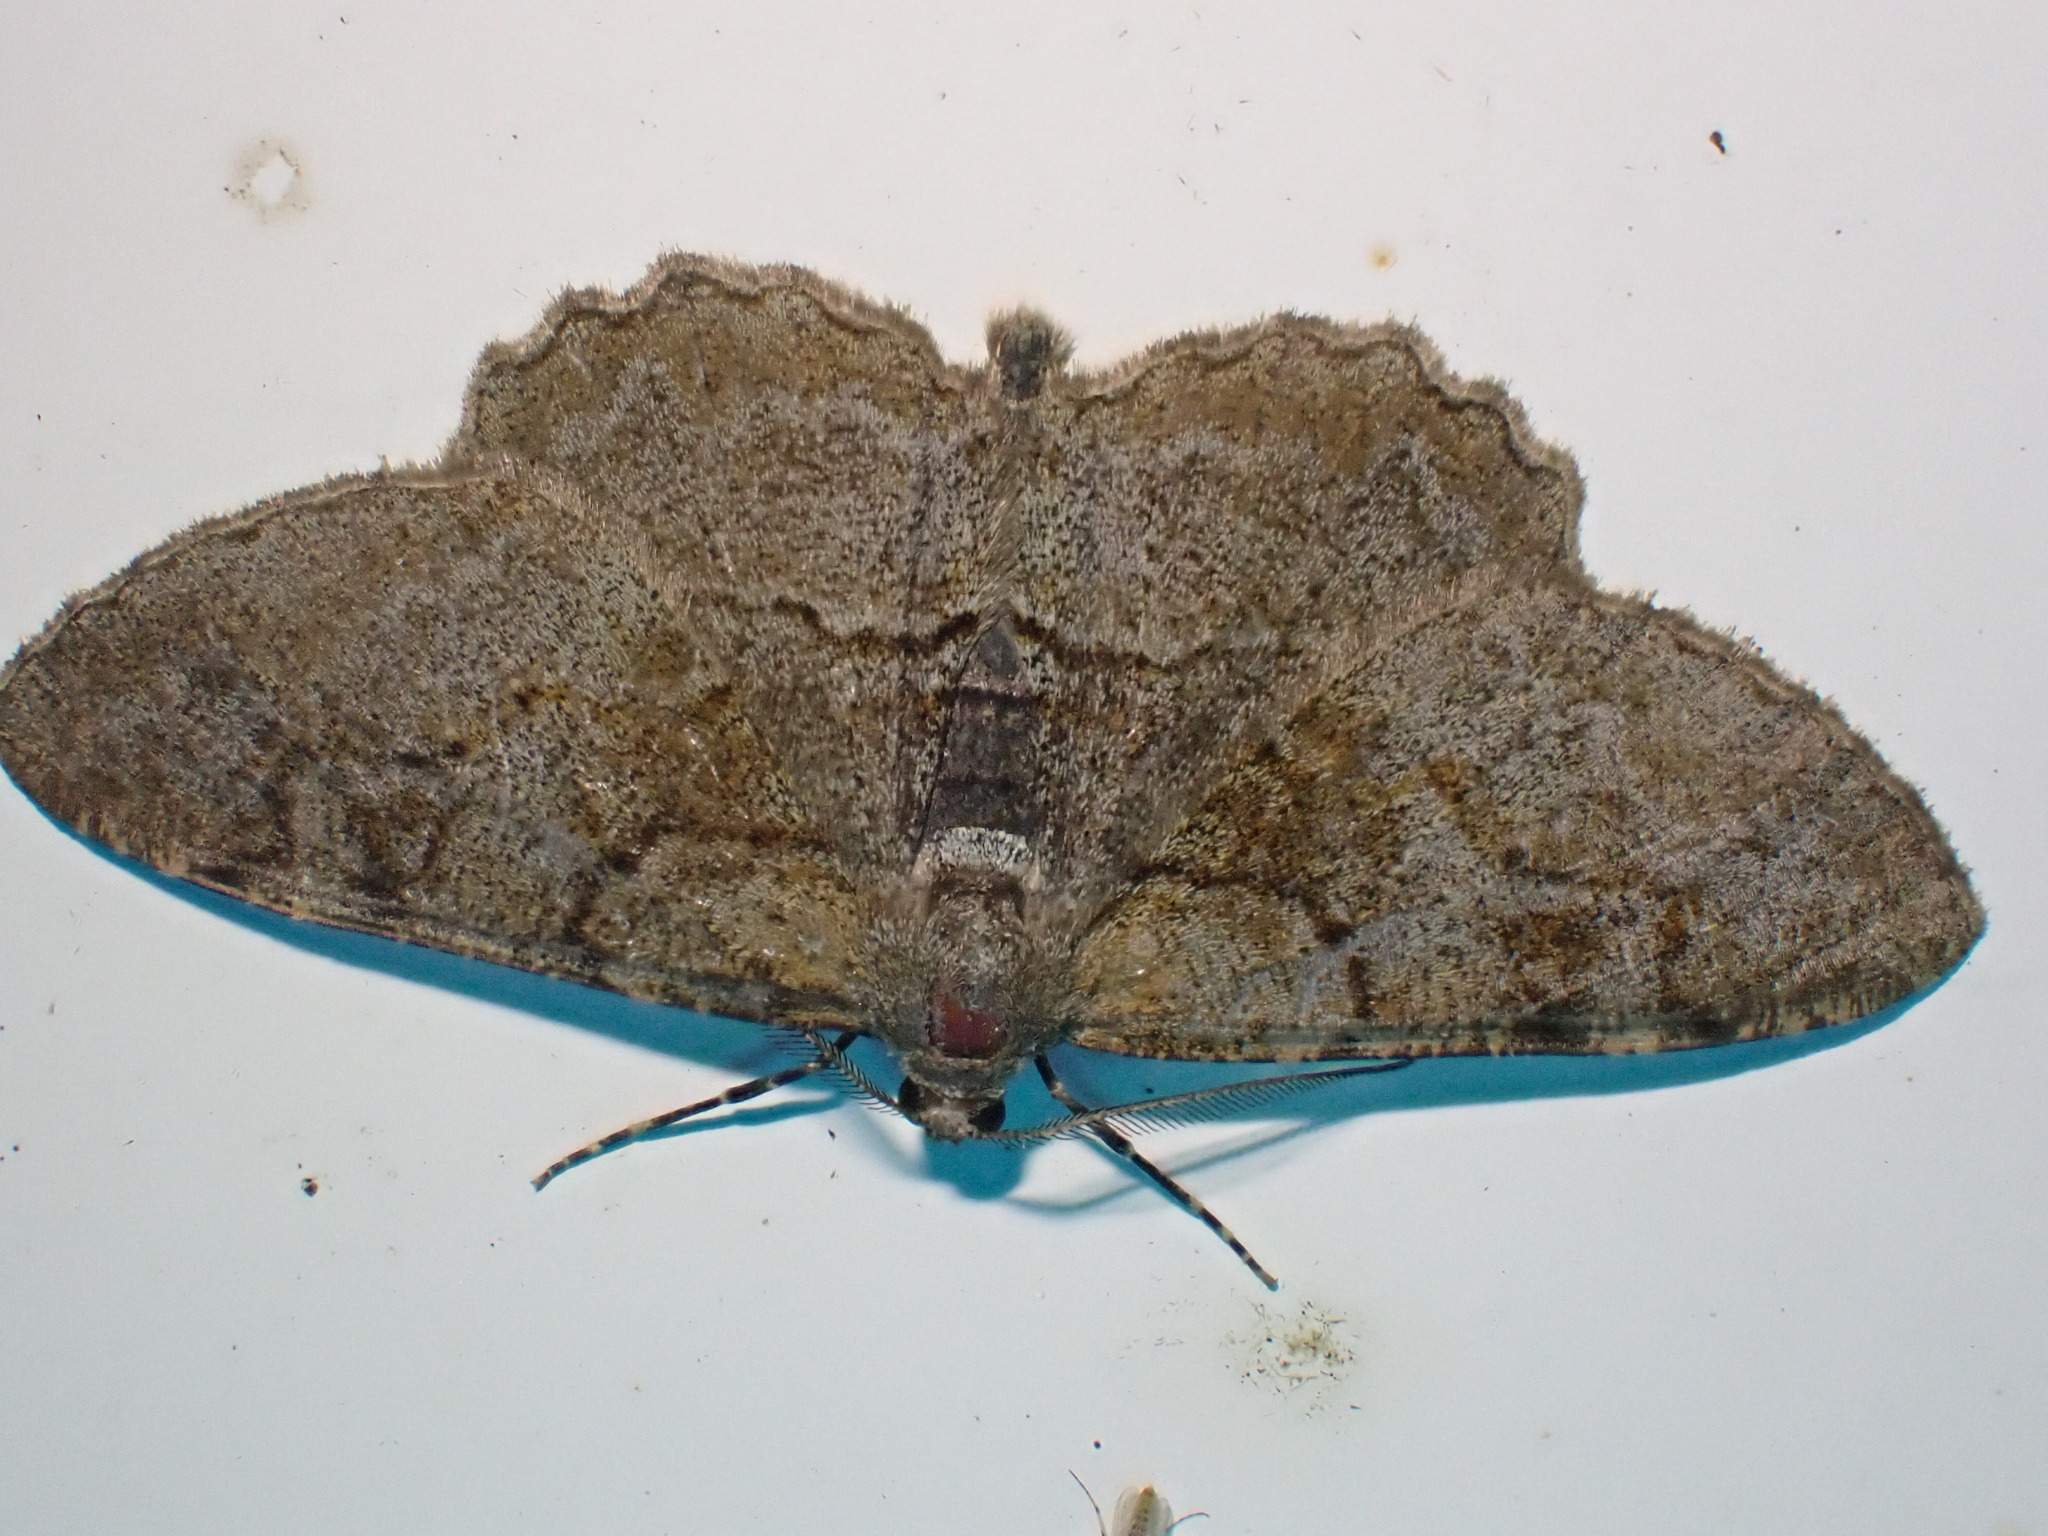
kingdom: Animalia
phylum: Arthropoda
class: Insecta
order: Lepidoptera
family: Geometridae
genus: Alcis
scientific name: Alcis repandata
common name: Mottled beauty
